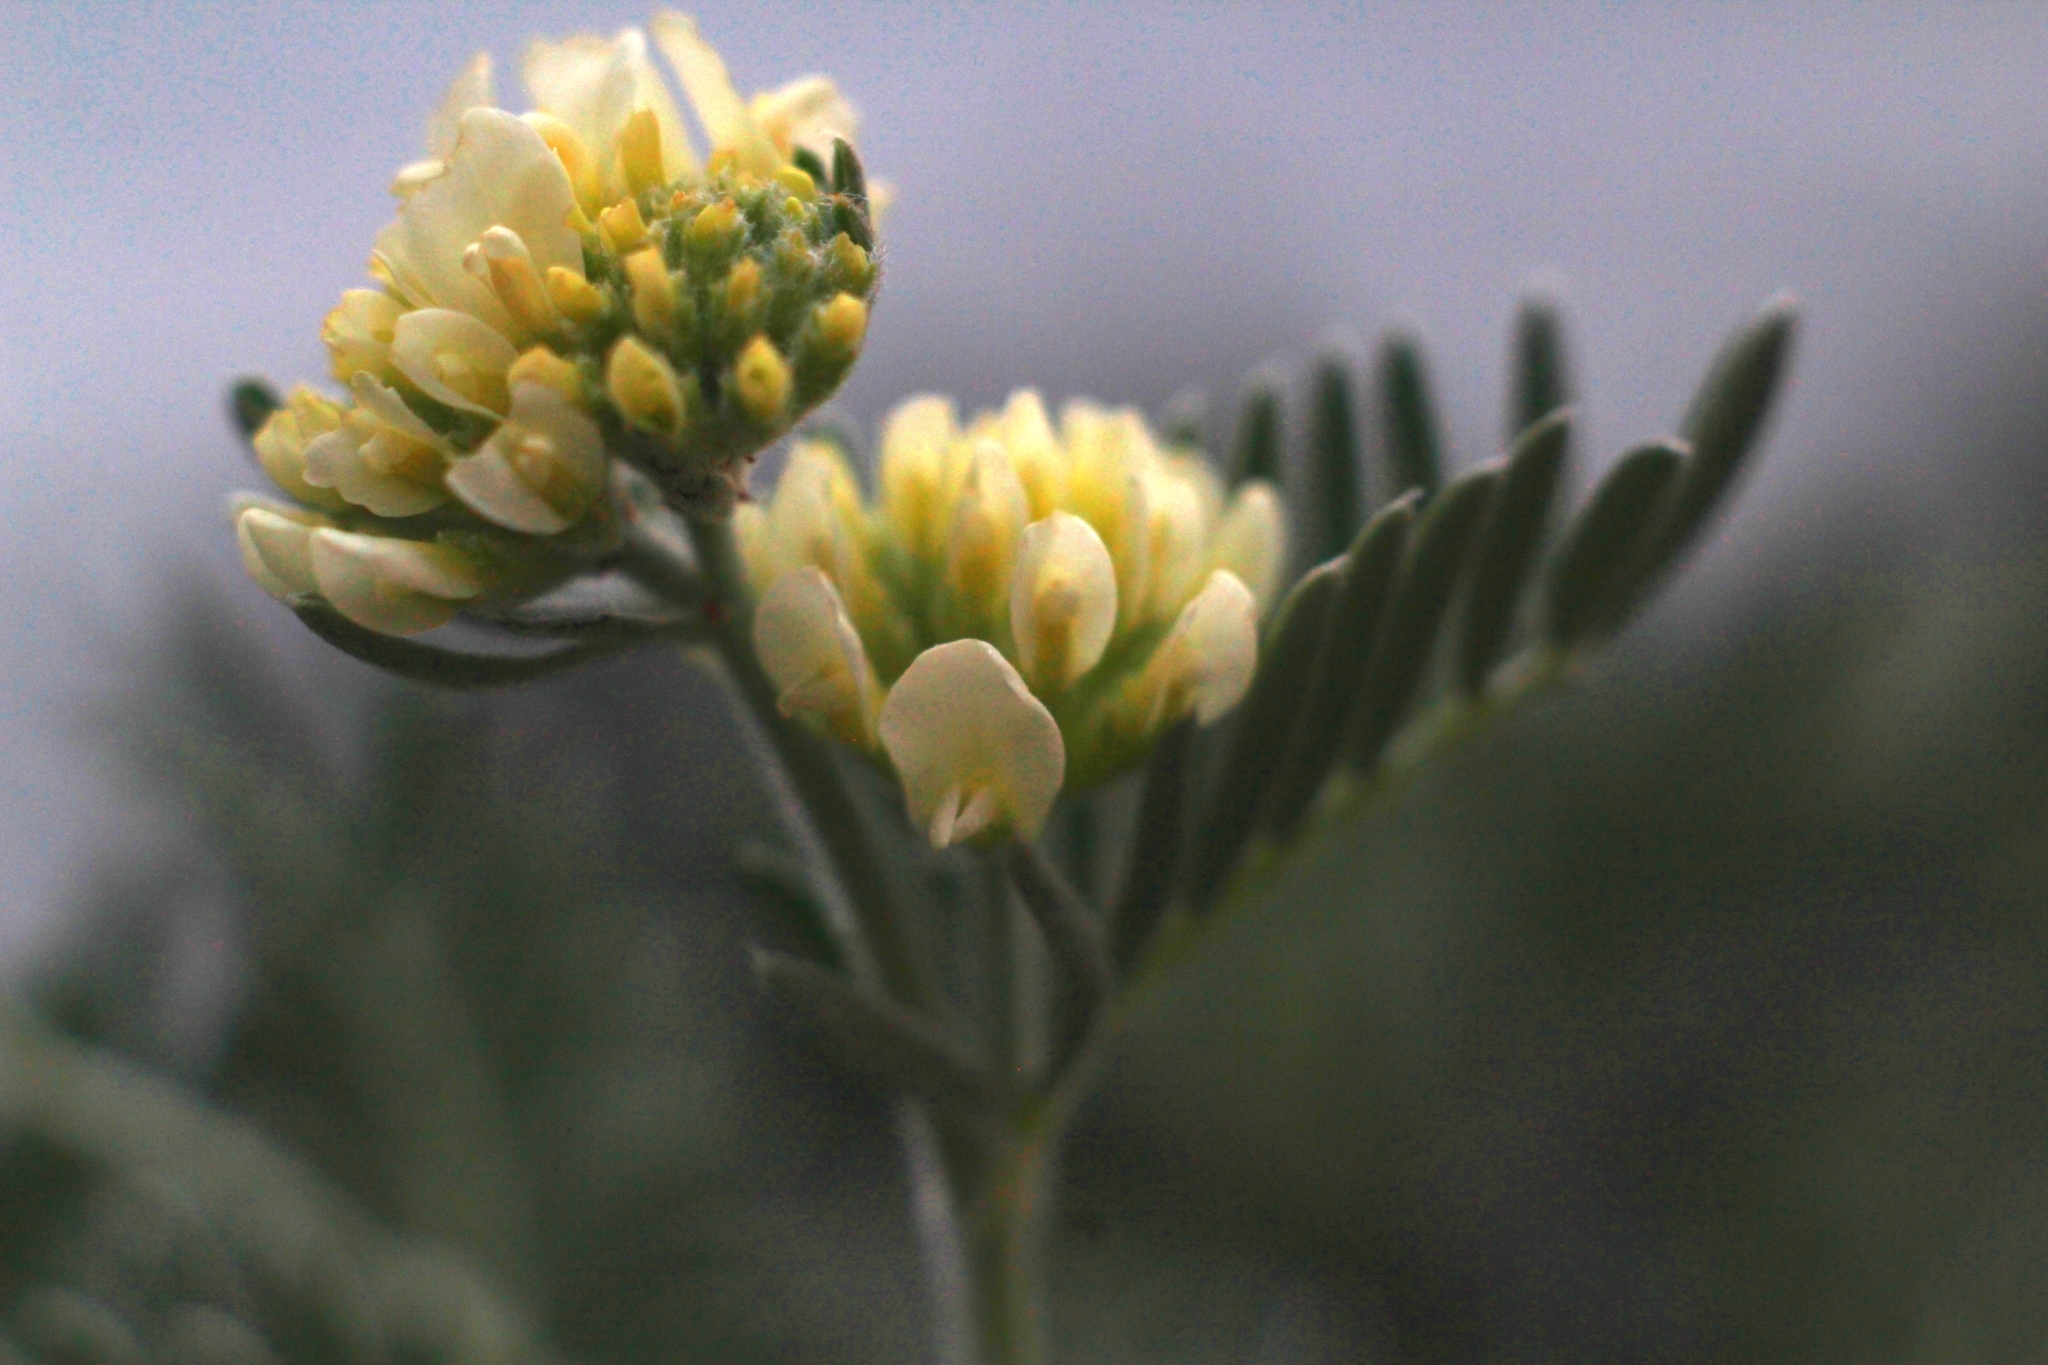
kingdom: Plantae
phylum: Tracheophyta
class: Magnoliopsida
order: Fabales
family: Fabaceae
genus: Anthyllis
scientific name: Anthyllis barba-jovis
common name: Jupiter's-beard
